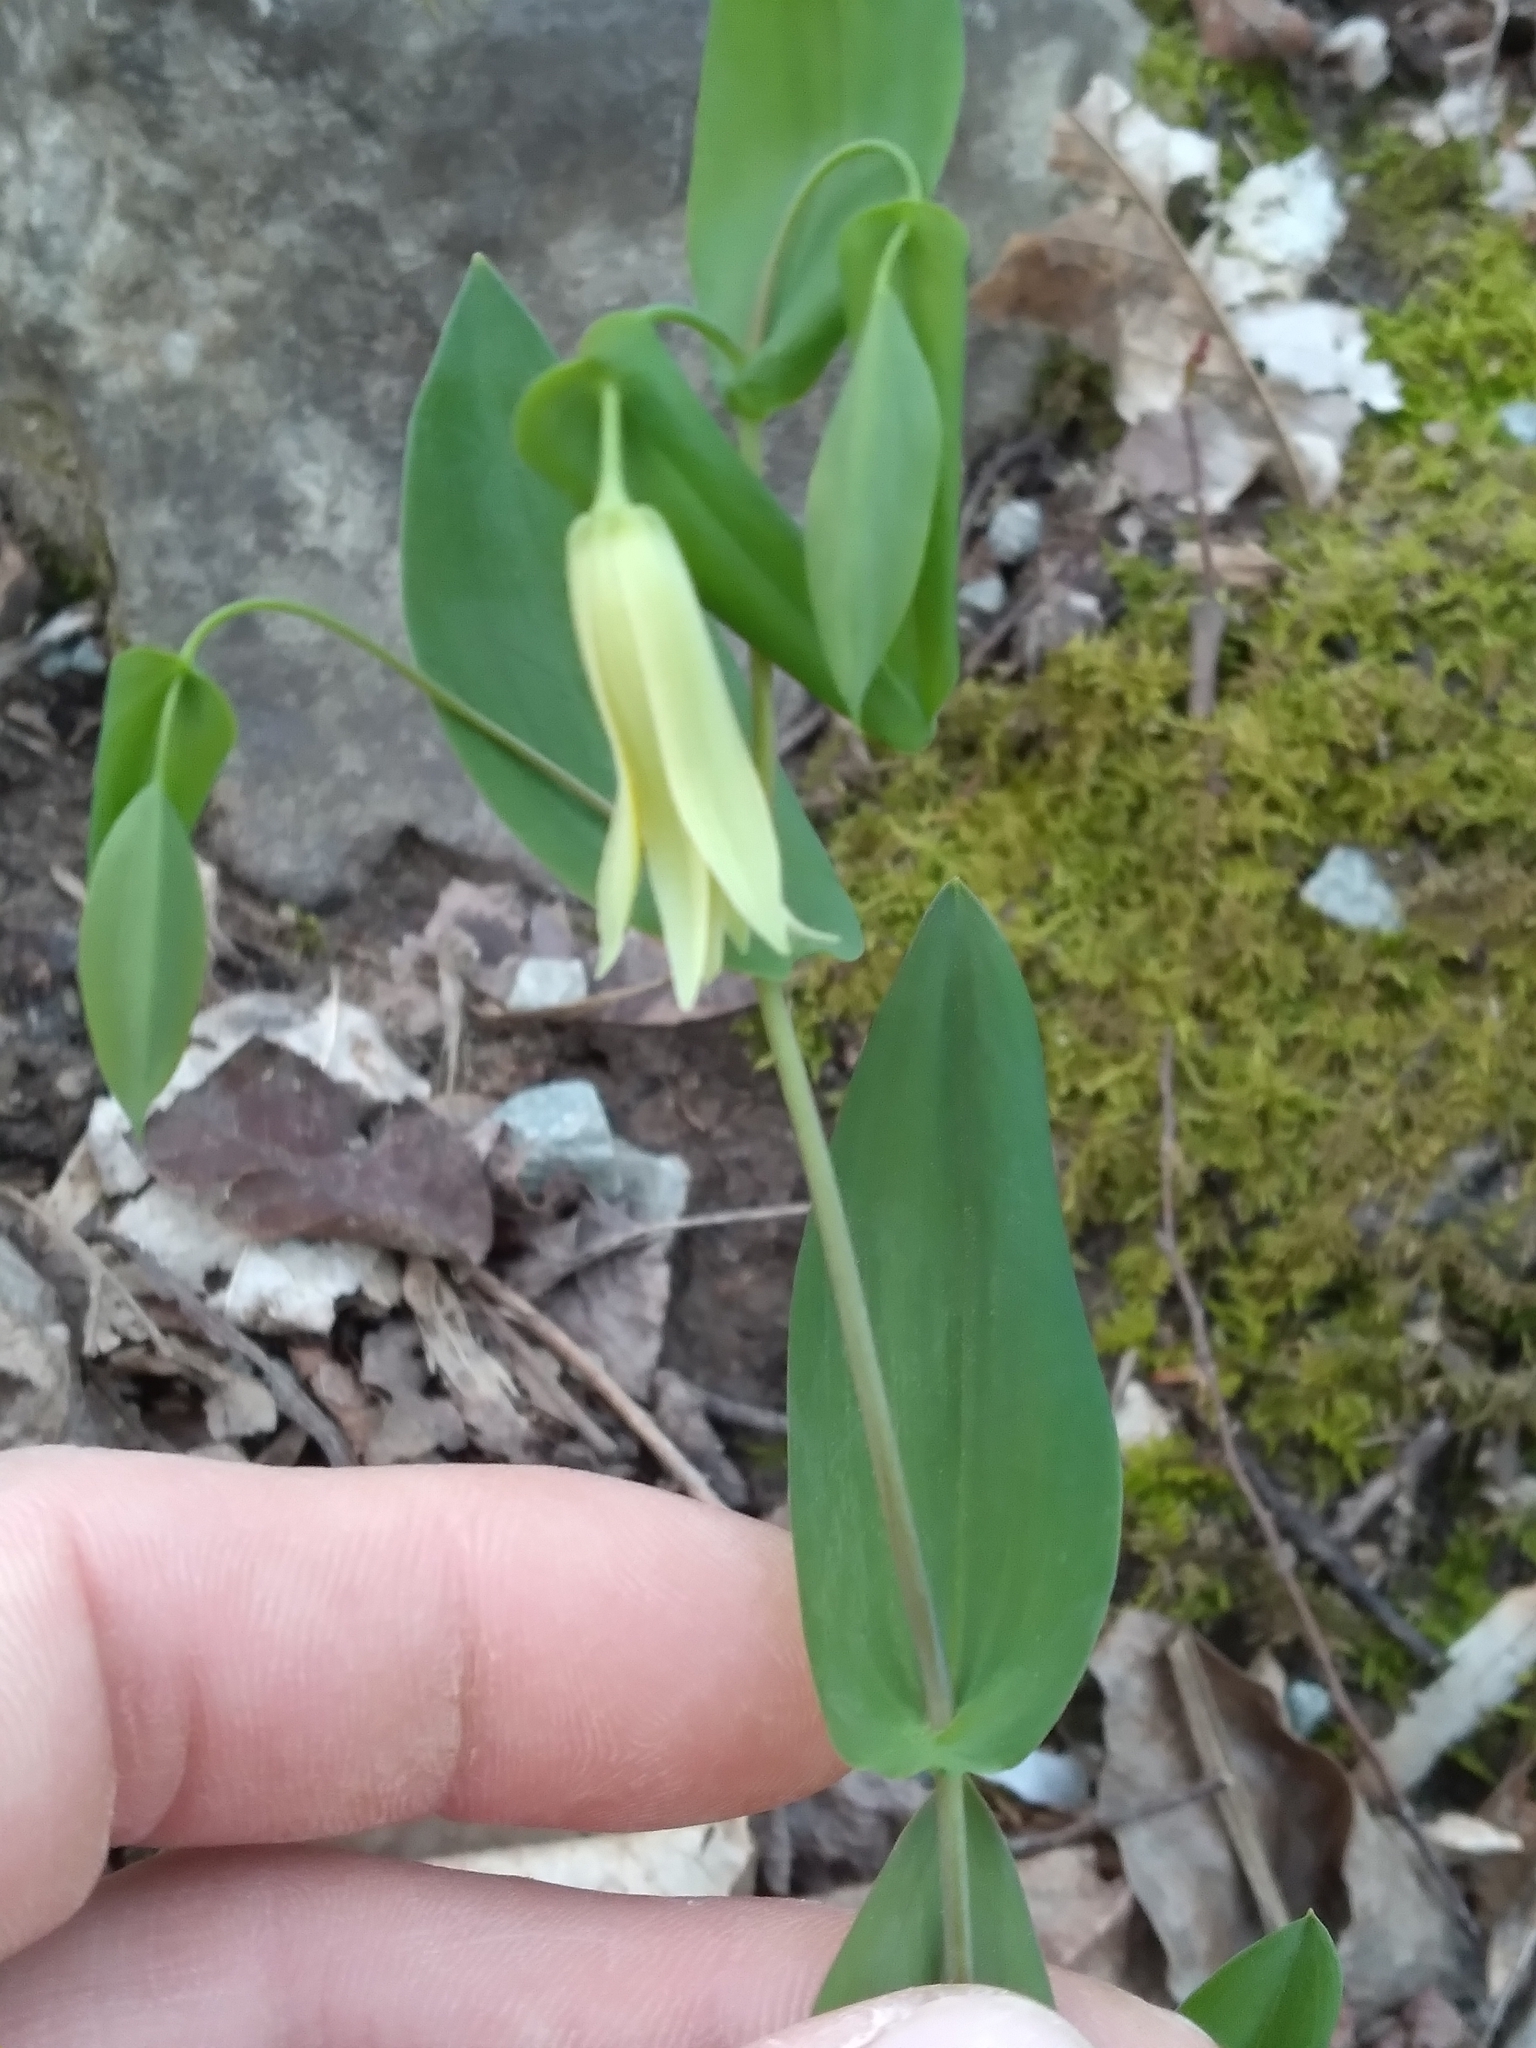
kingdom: Plantae
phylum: Tracheophyta
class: Liliopsida
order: Liliales
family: Colchicaceae
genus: Uvularia
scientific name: Uvularia perfoliata
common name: Perfoliate bellwort
